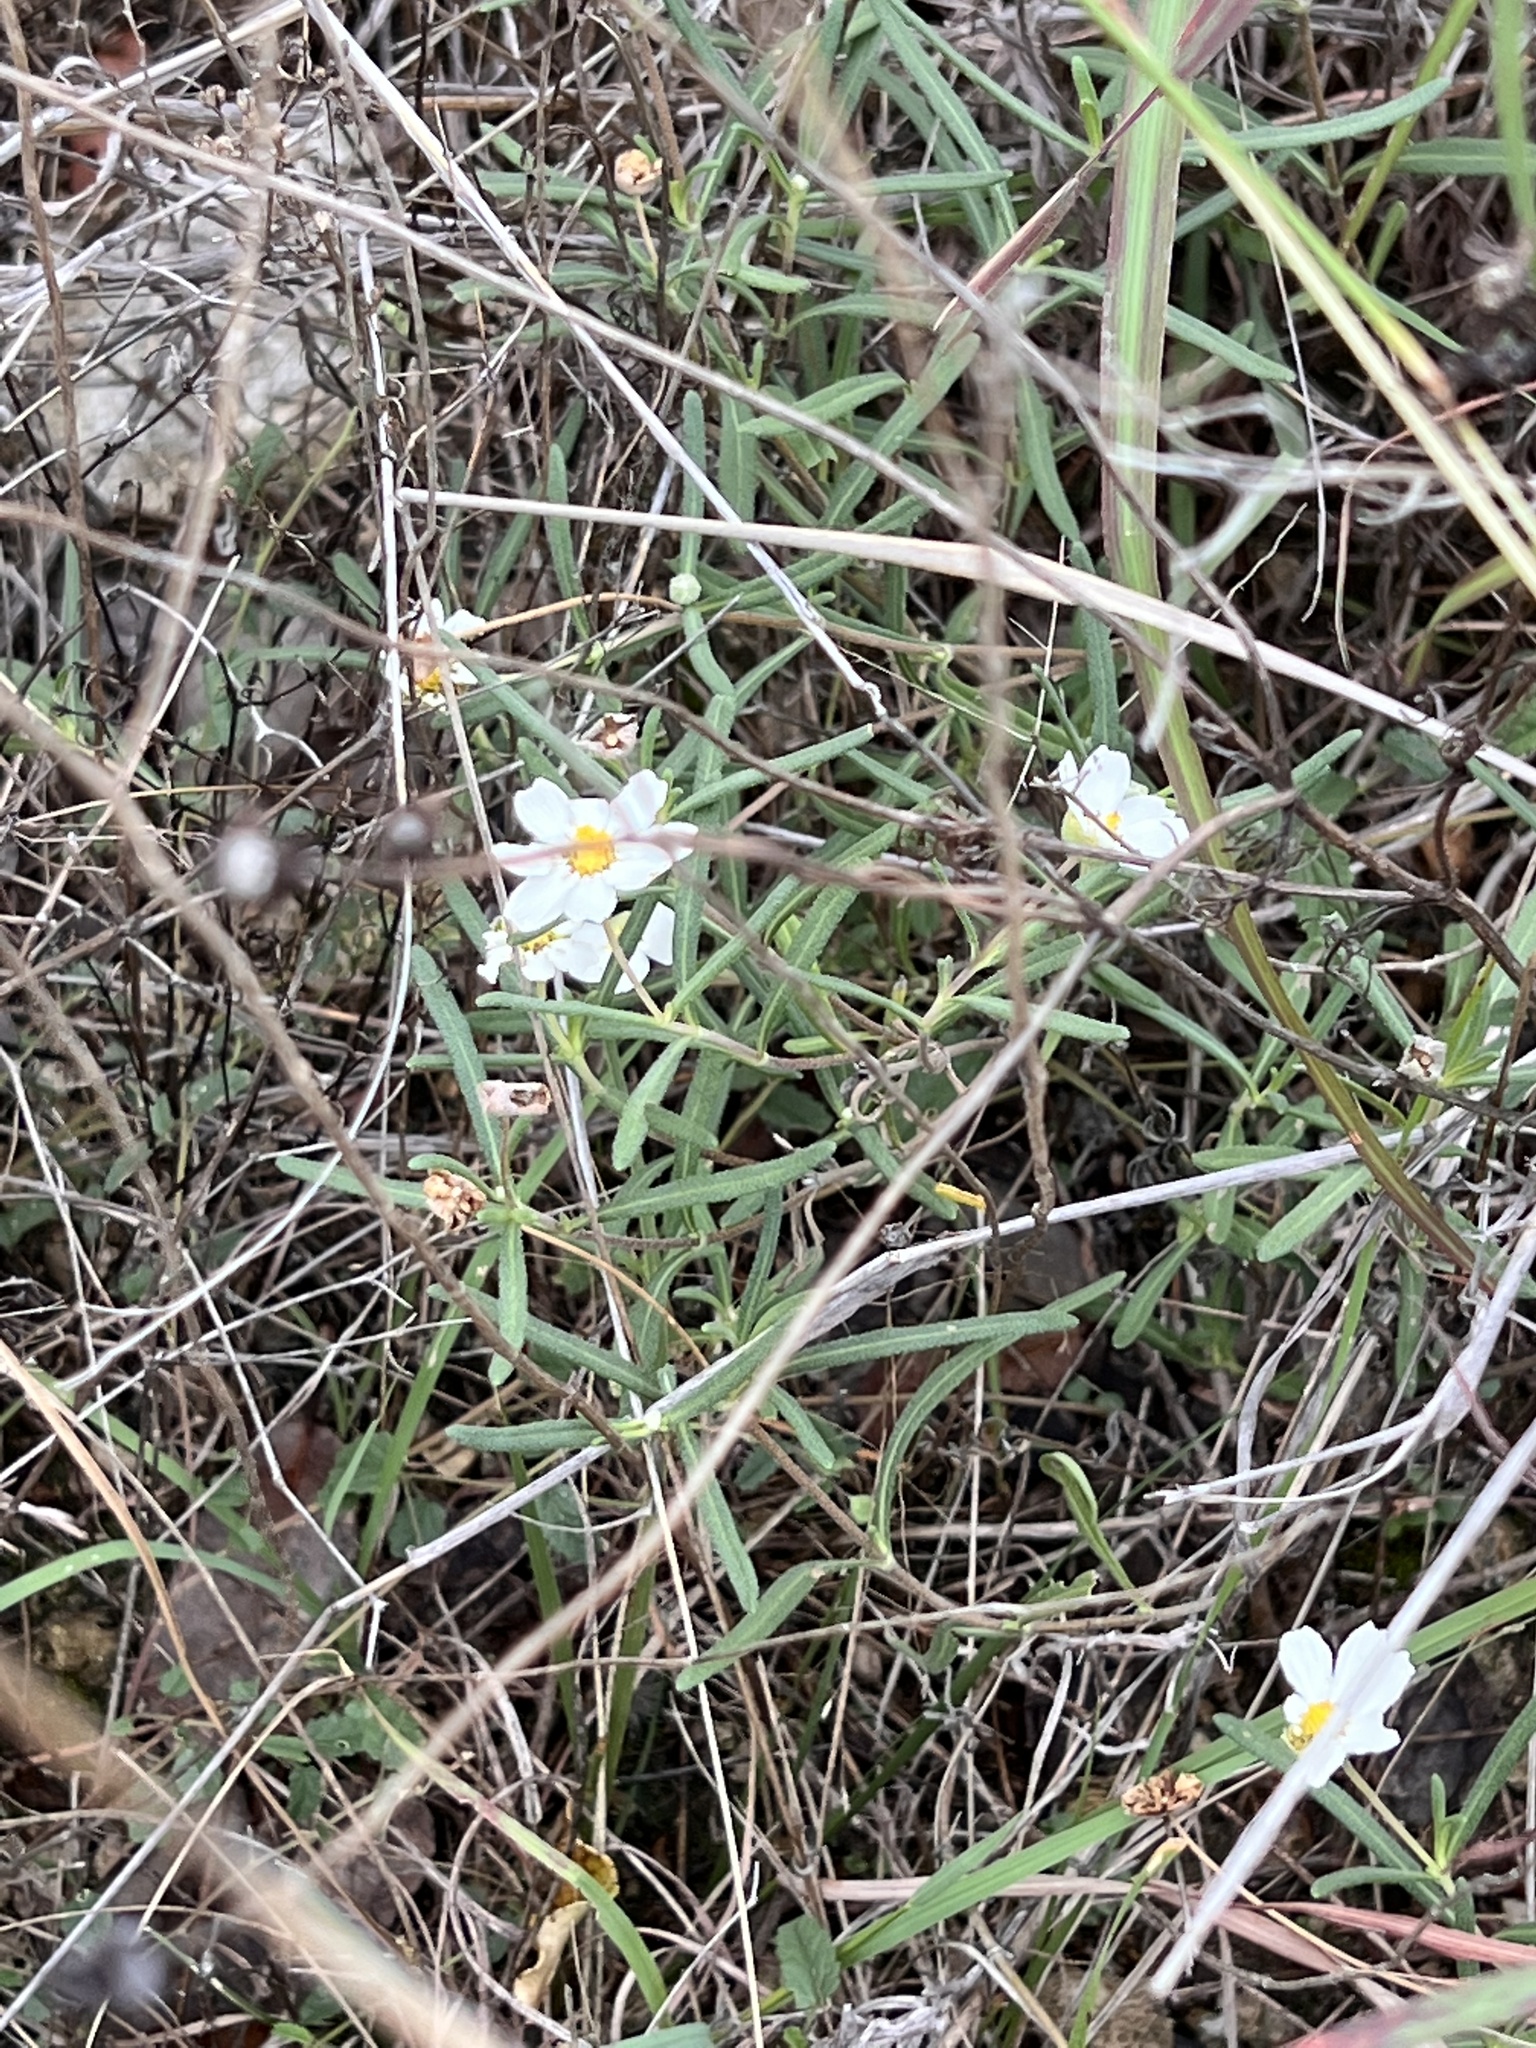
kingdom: Plantae
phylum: Tracheophyta
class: Magnoliopsida
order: Asterales
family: Asteraceae
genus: Melampodium
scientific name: Melampodium leucanthum
